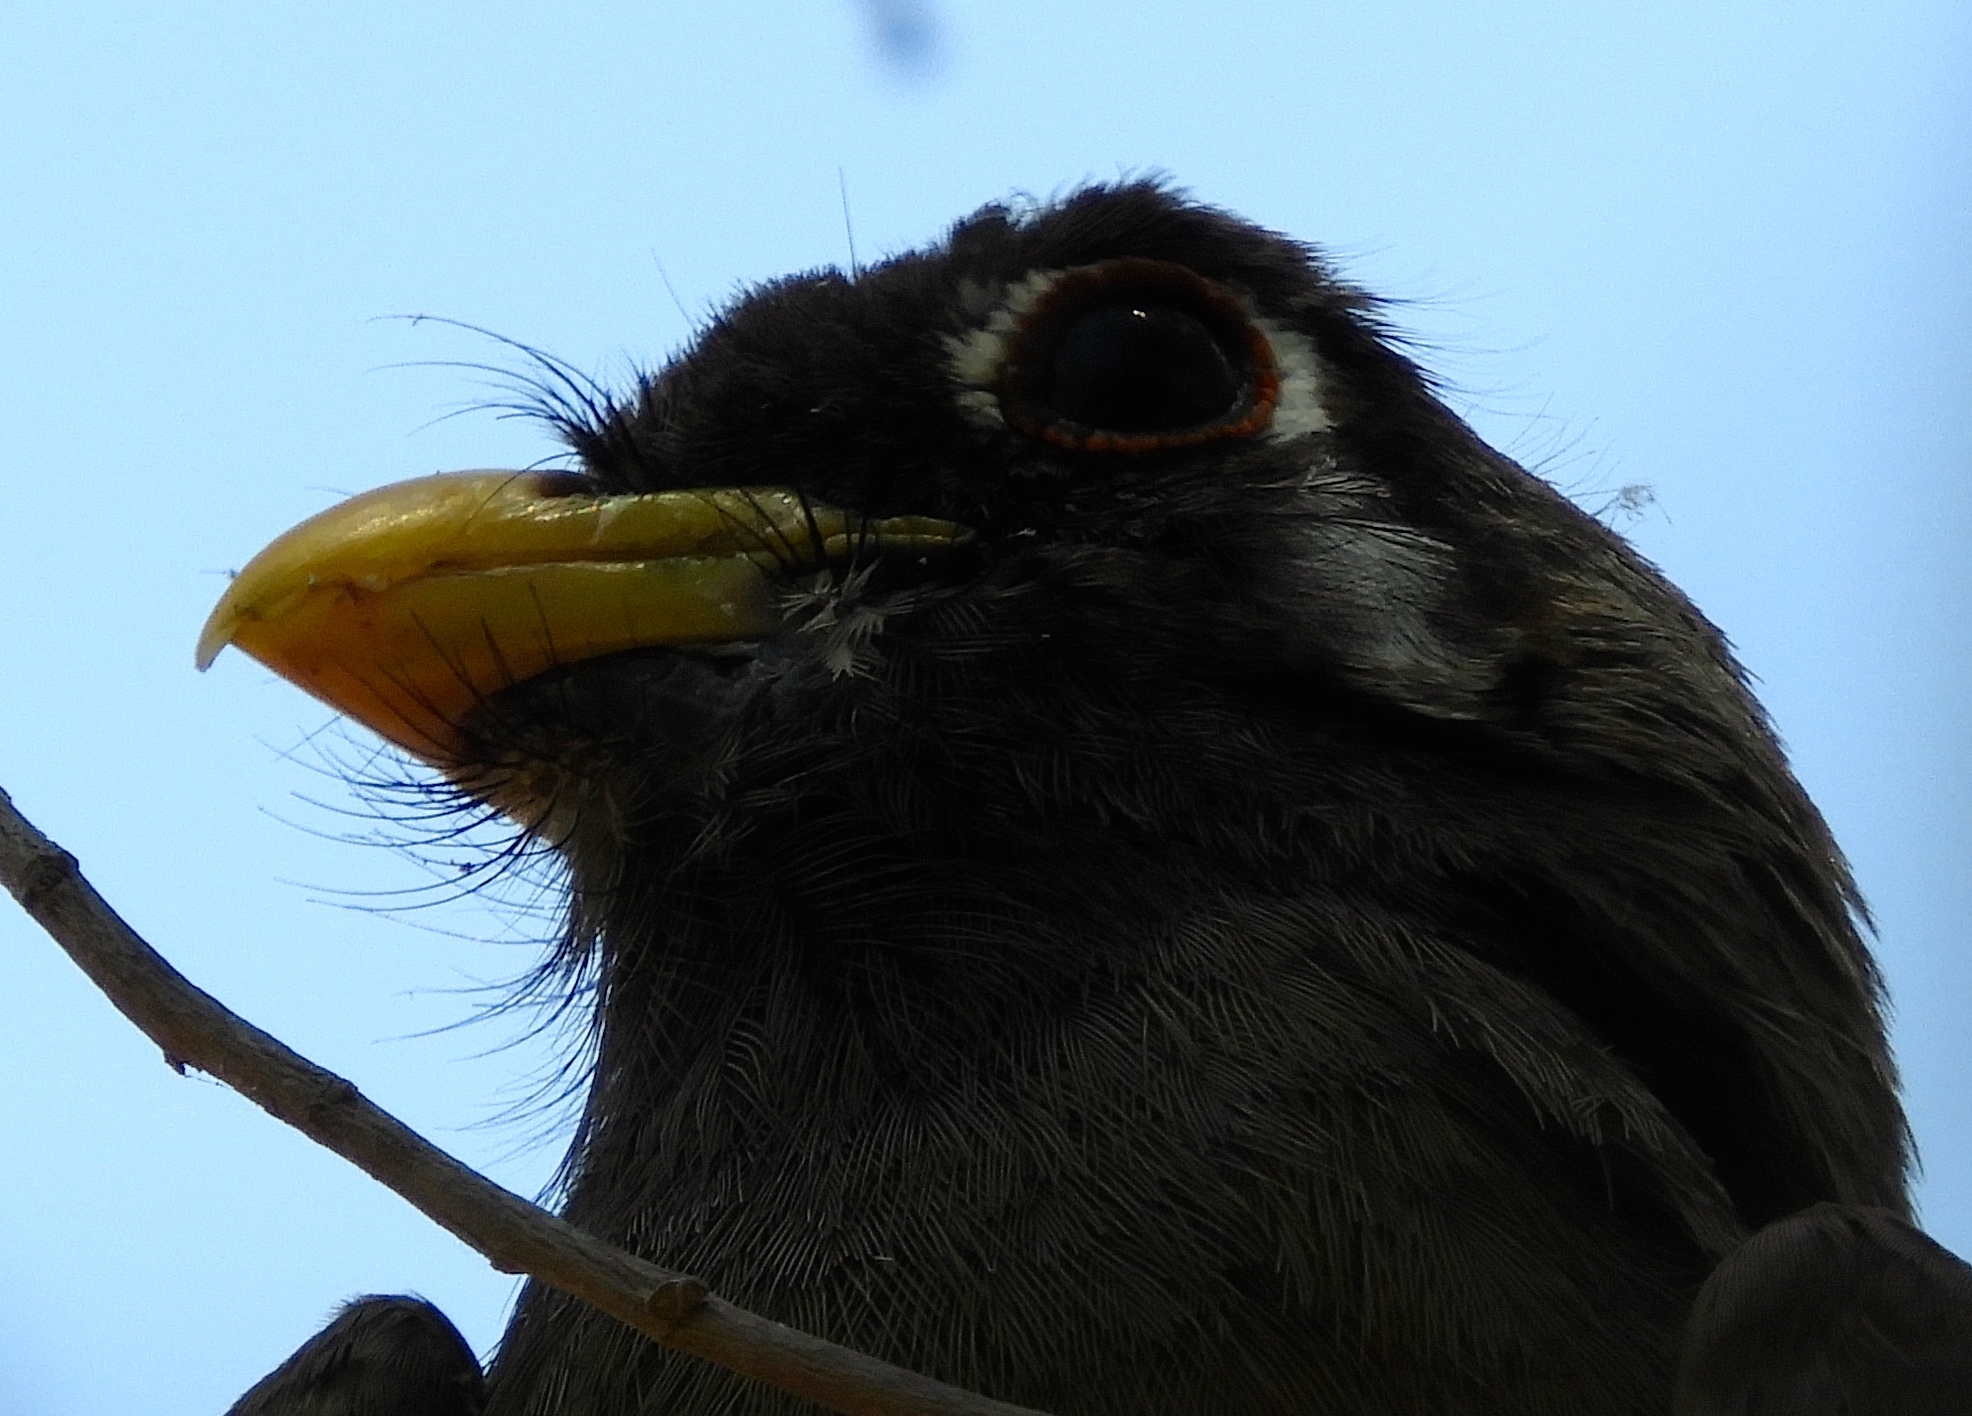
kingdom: Animalia
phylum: Chordata
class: Aves
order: Trogoniformes
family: Trogonidae
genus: Trogon
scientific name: Trogon elegans
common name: Elegant trogon
